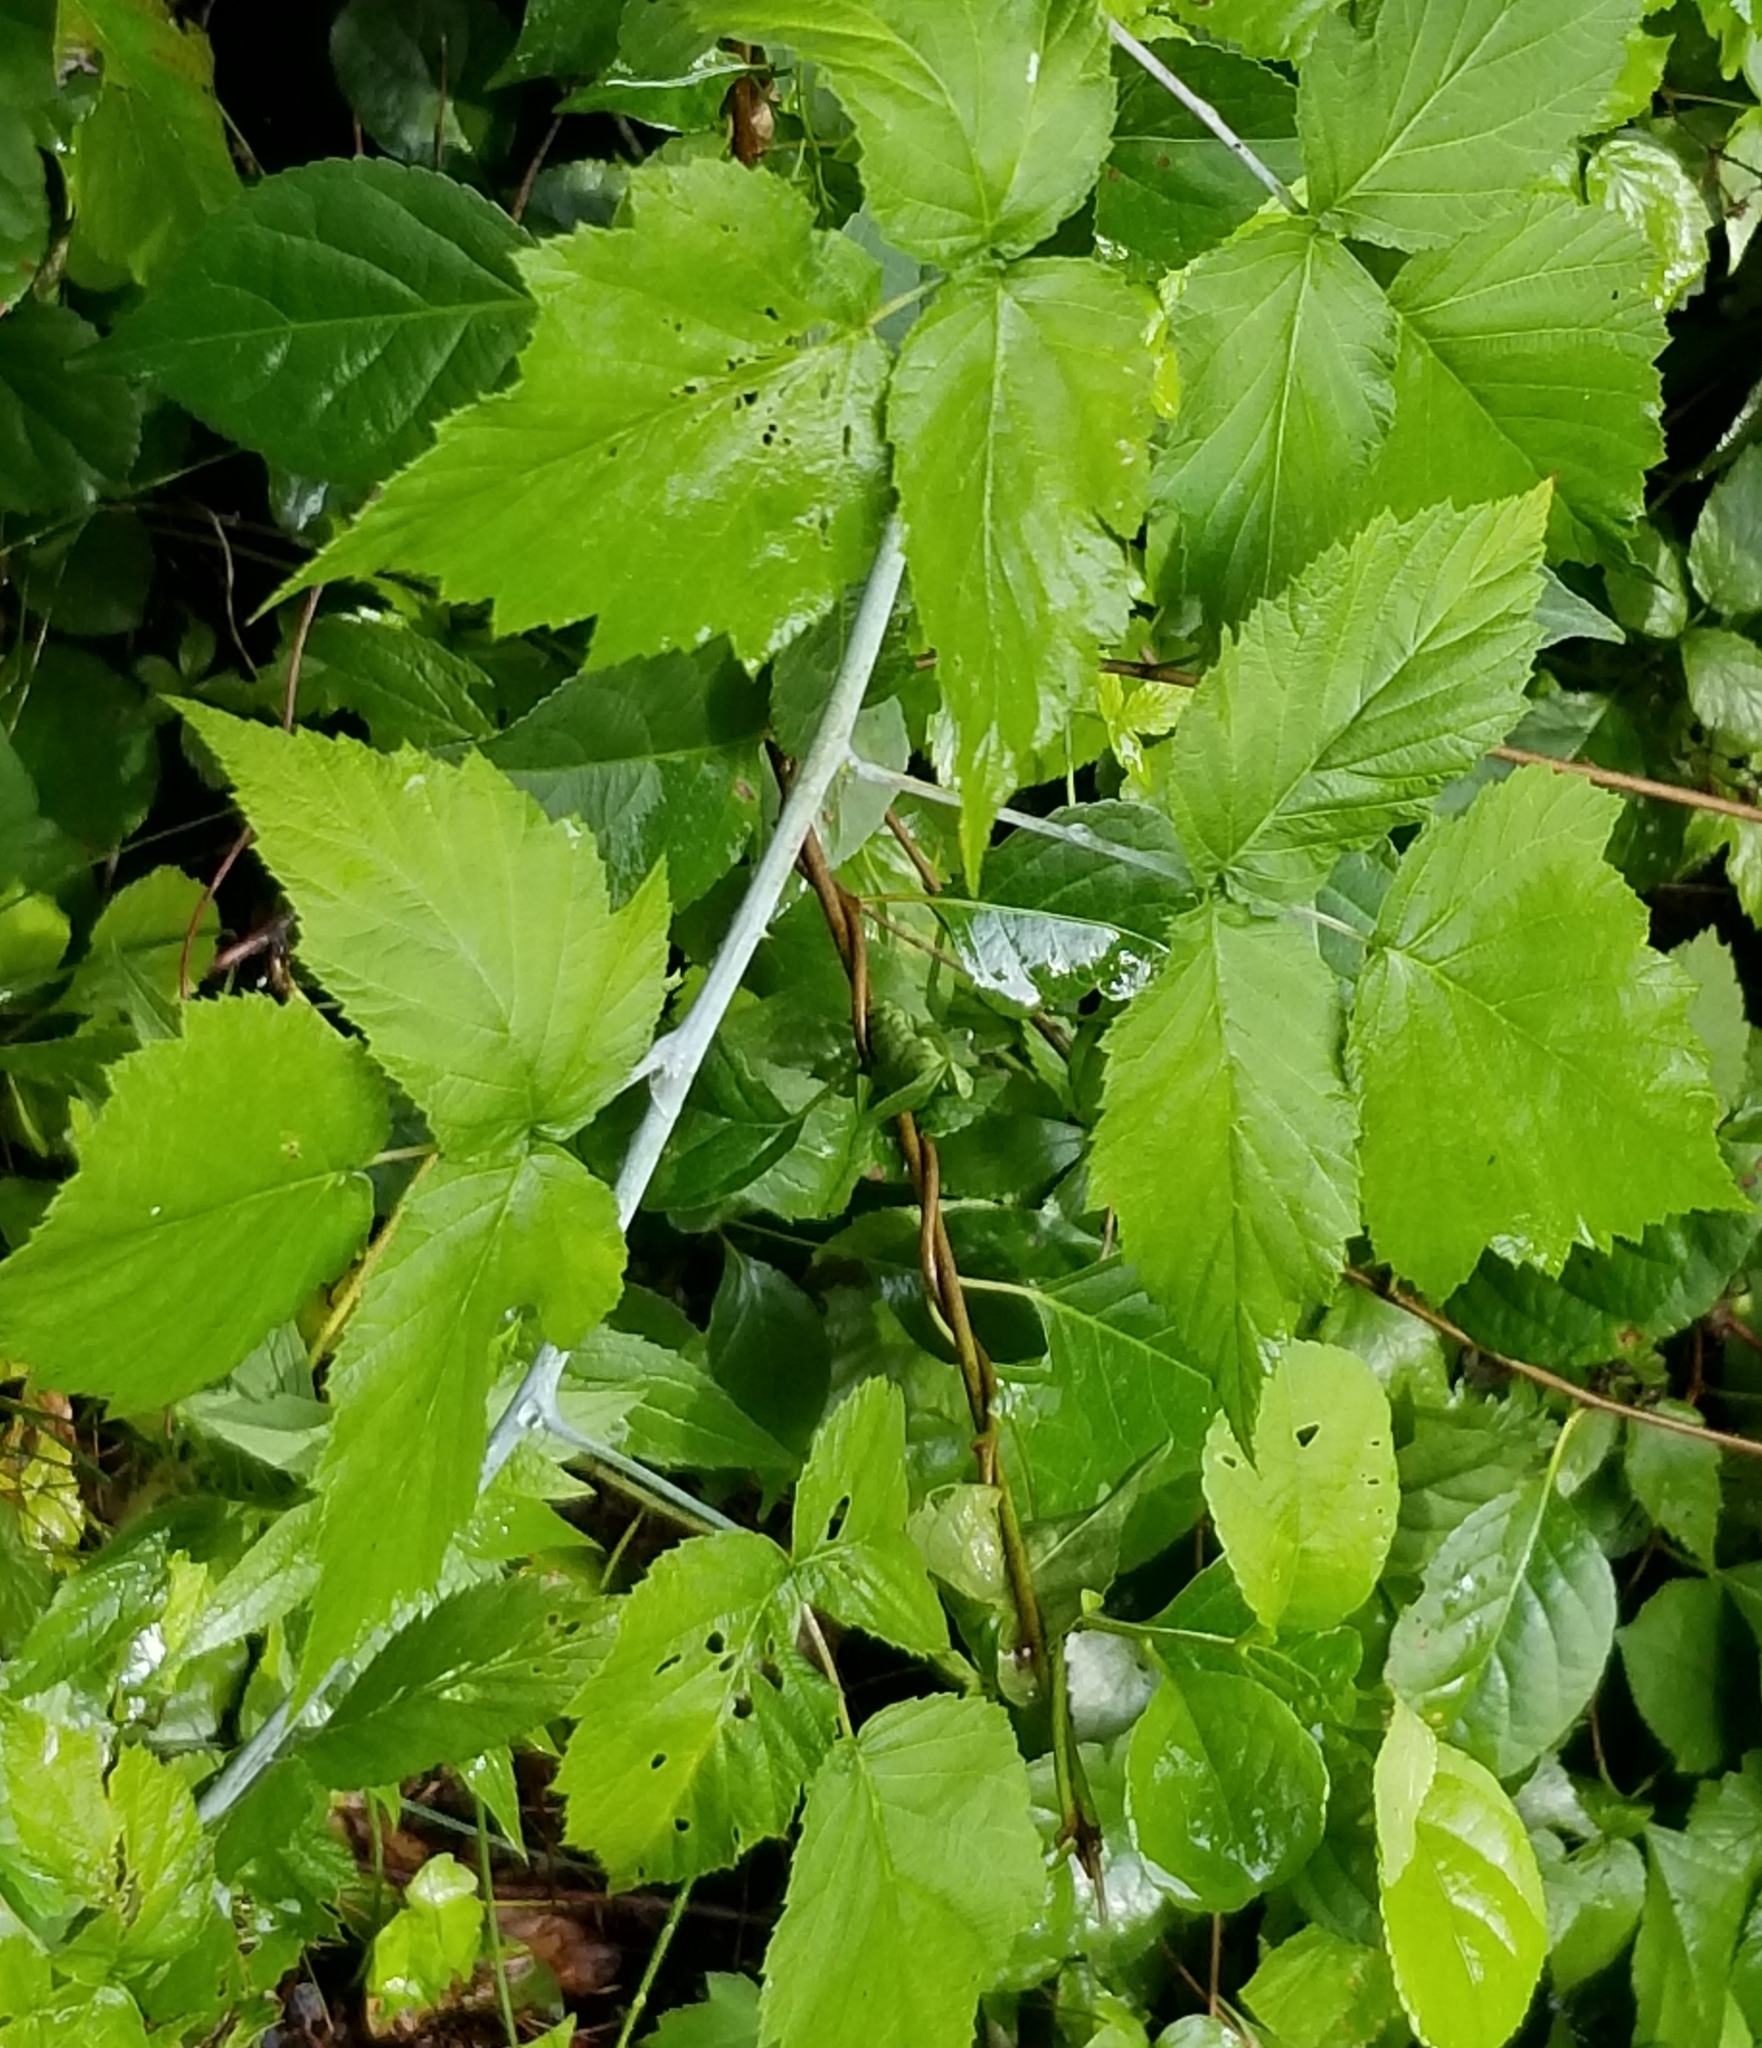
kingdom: Plantae
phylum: Tracheophyta
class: Magnoliopsida
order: Rosales
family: Rosaceae
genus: Rubus
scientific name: Rubus occidentalis
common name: Black raspberry
